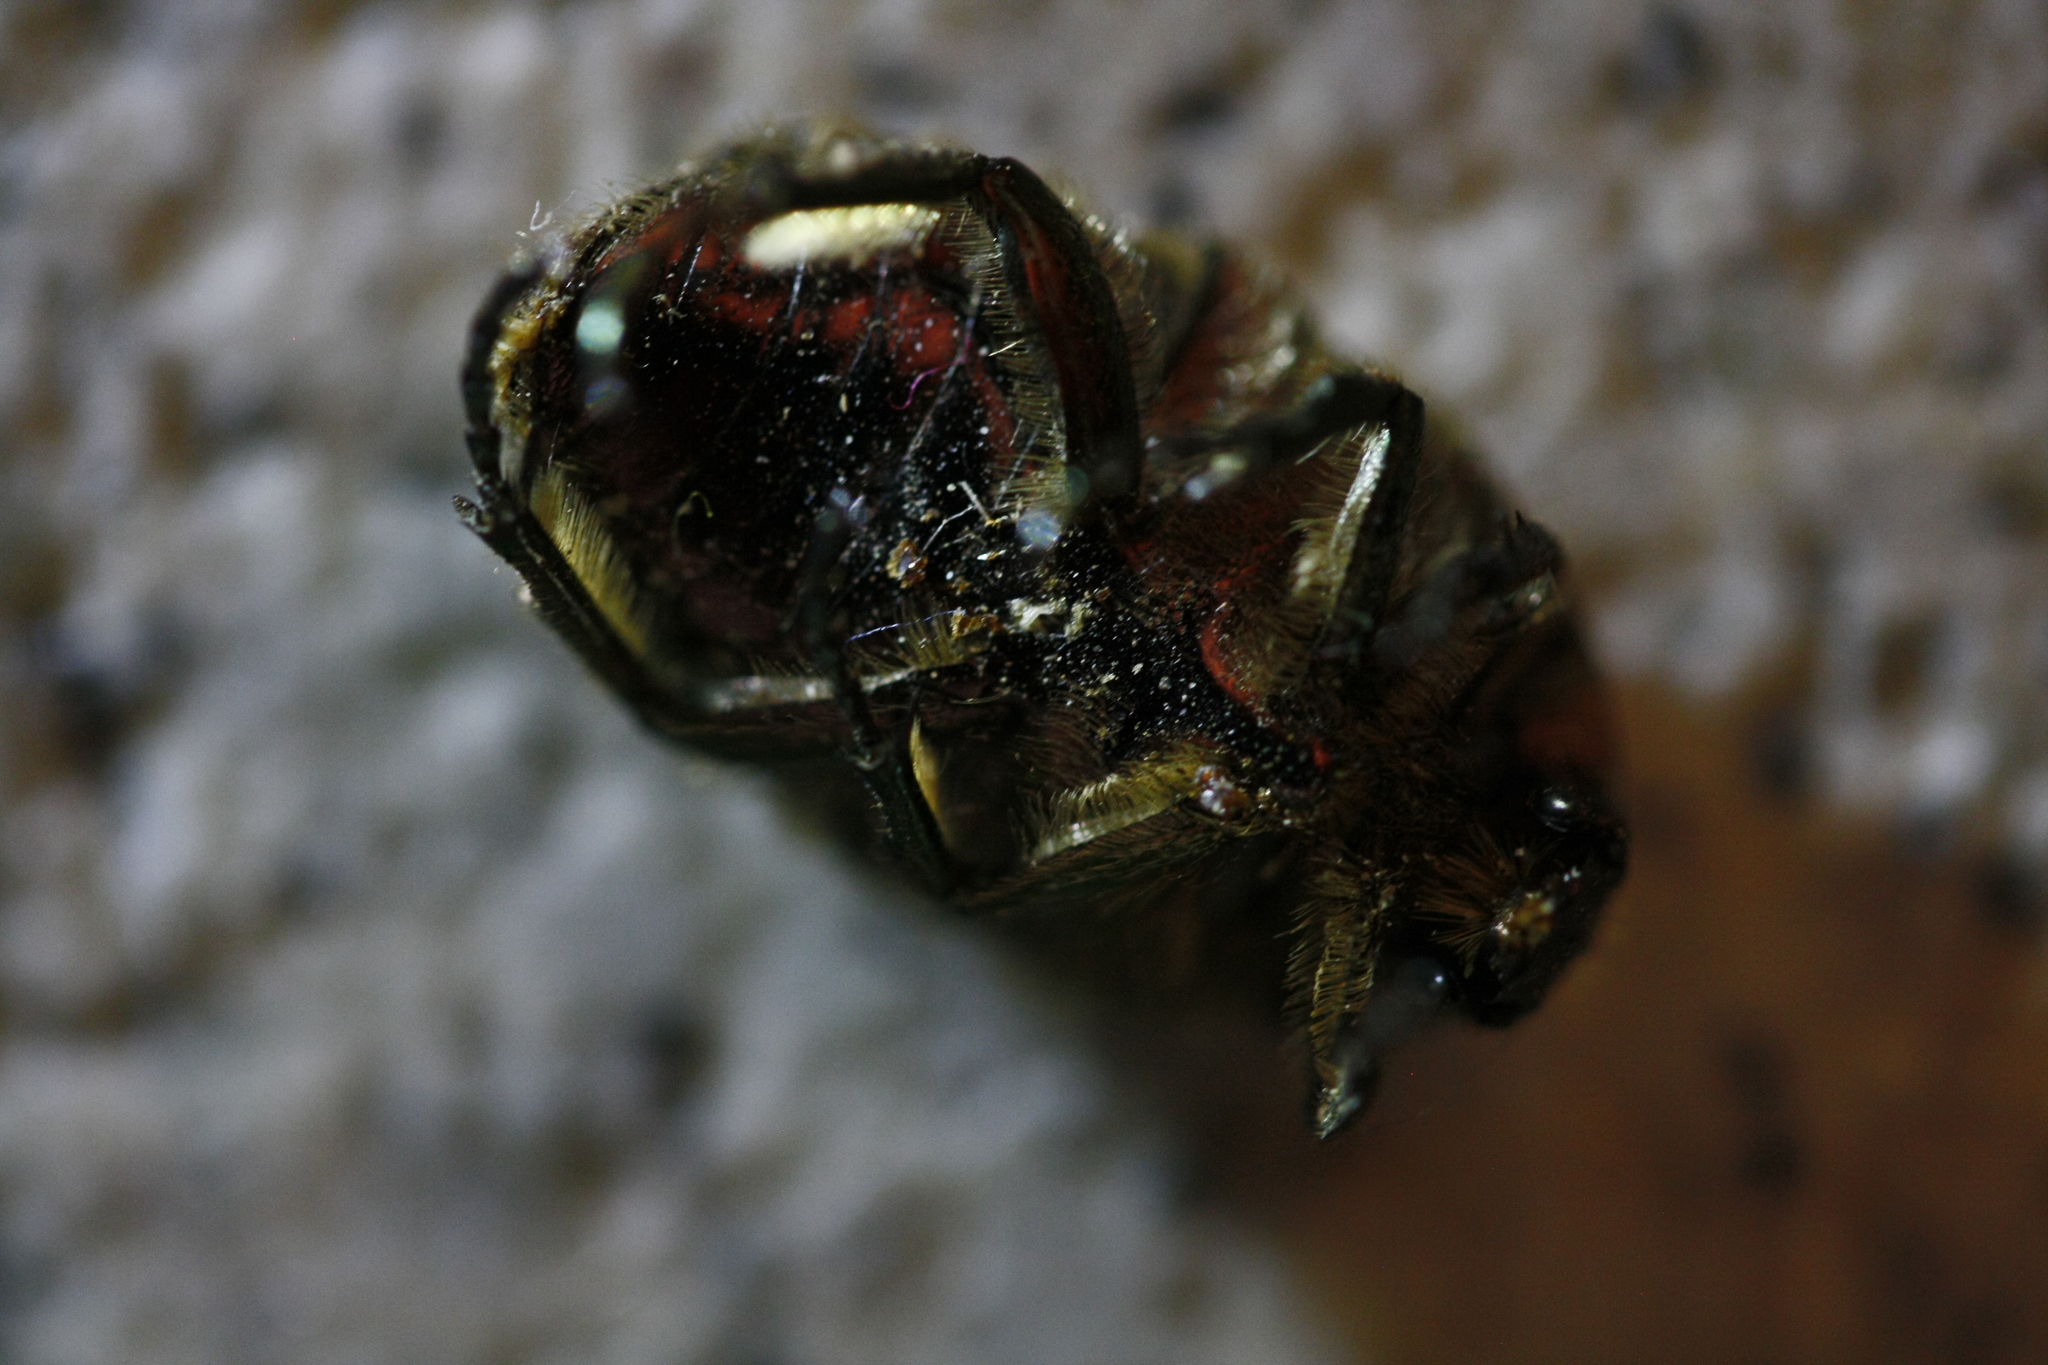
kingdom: Animalia
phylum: Arthropoda
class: Insecta
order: Coleoptera
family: Scarabaeidae
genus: Cetonia
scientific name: Cetonia aurata
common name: Rose chafer
